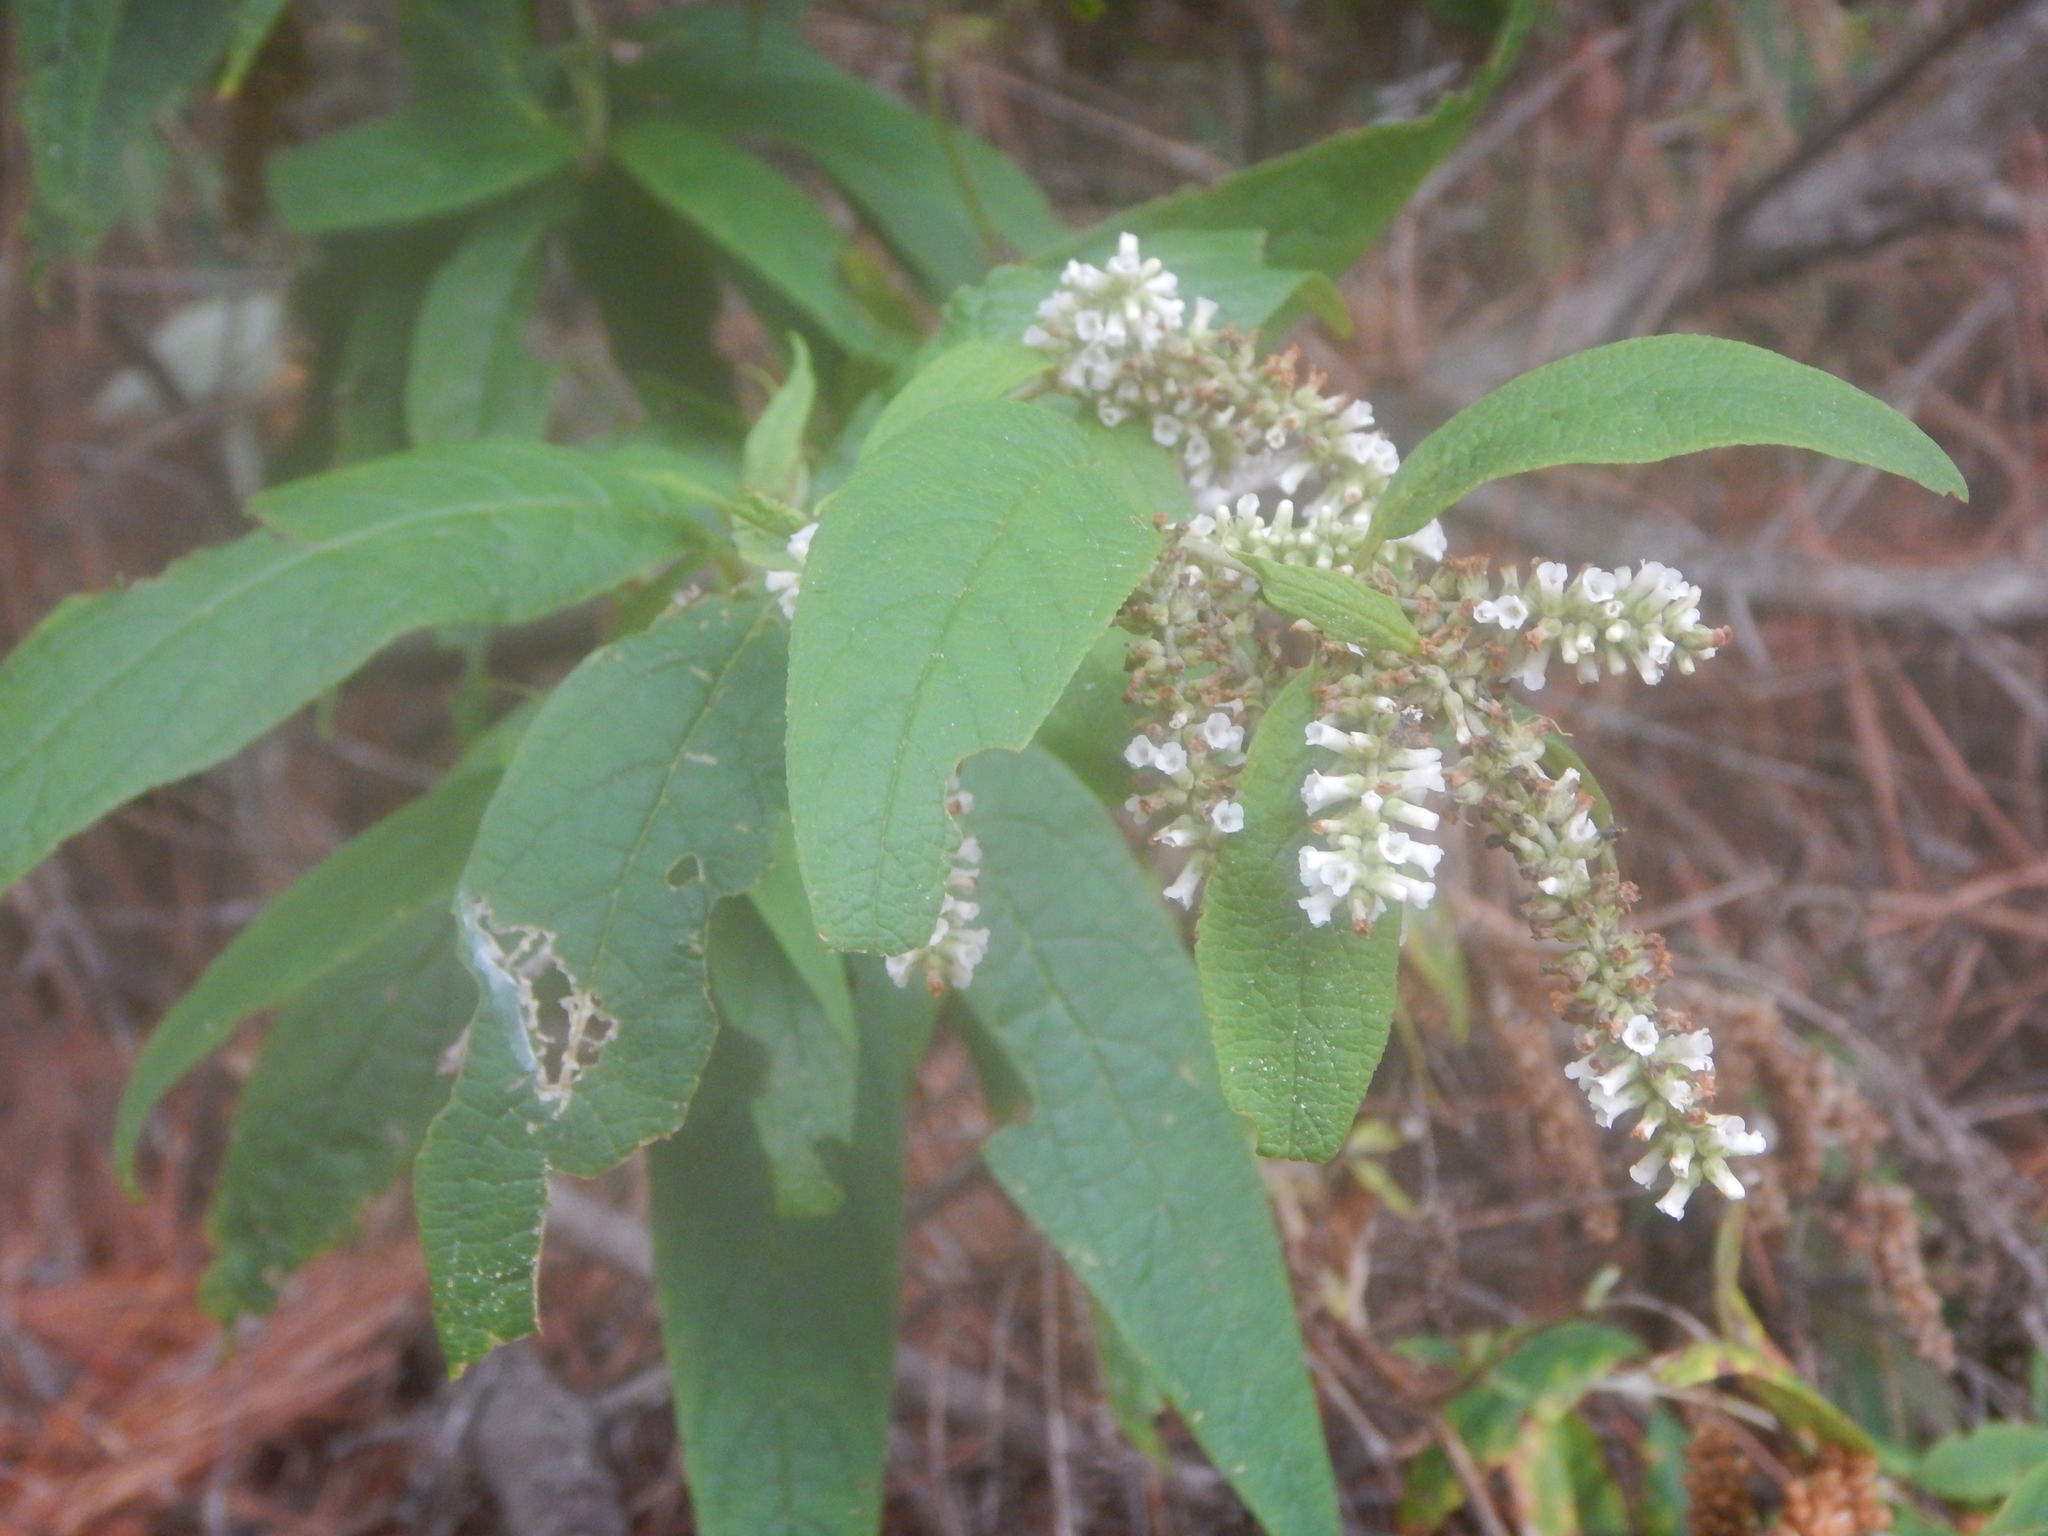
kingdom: Plantae
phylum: Tracheophyta
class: Magnoliopsida
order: Lamiales
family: Scrophulariaceae
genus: Buddleja
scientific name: Buddleja asiatica
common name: Dog tail
